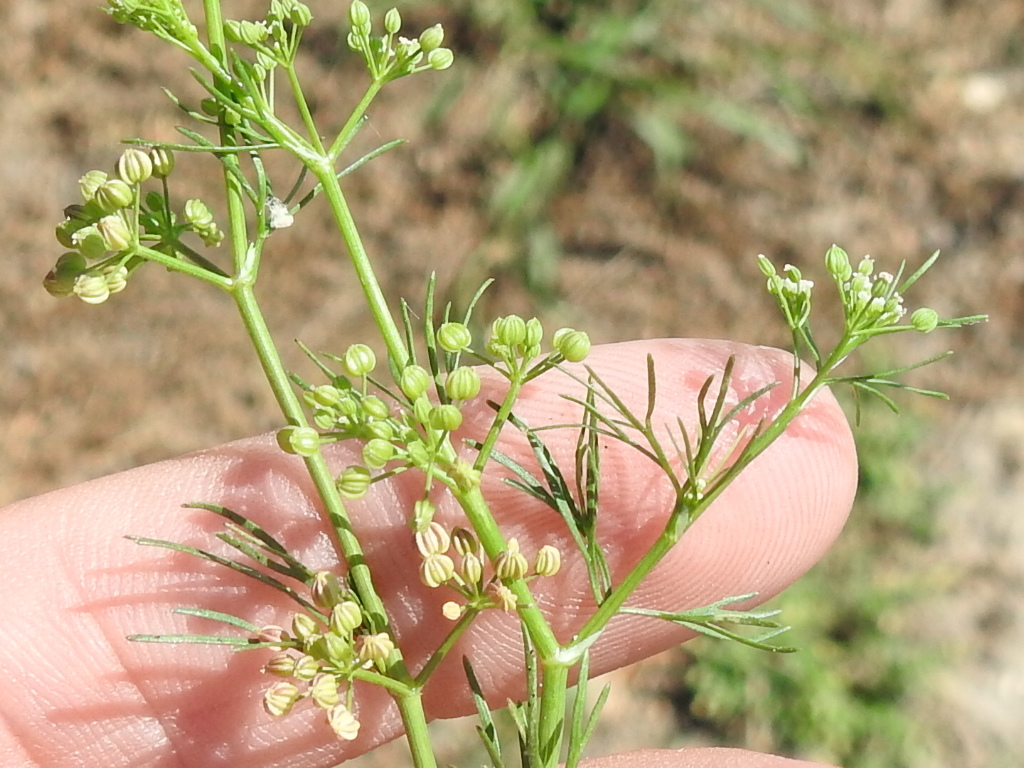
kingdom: Plantae
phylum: Tracheophyta
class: Magnoliopsida
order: Apiales
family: Apiaceae
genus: Cyclospermum
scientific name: Cyclospermum leptophyllum
